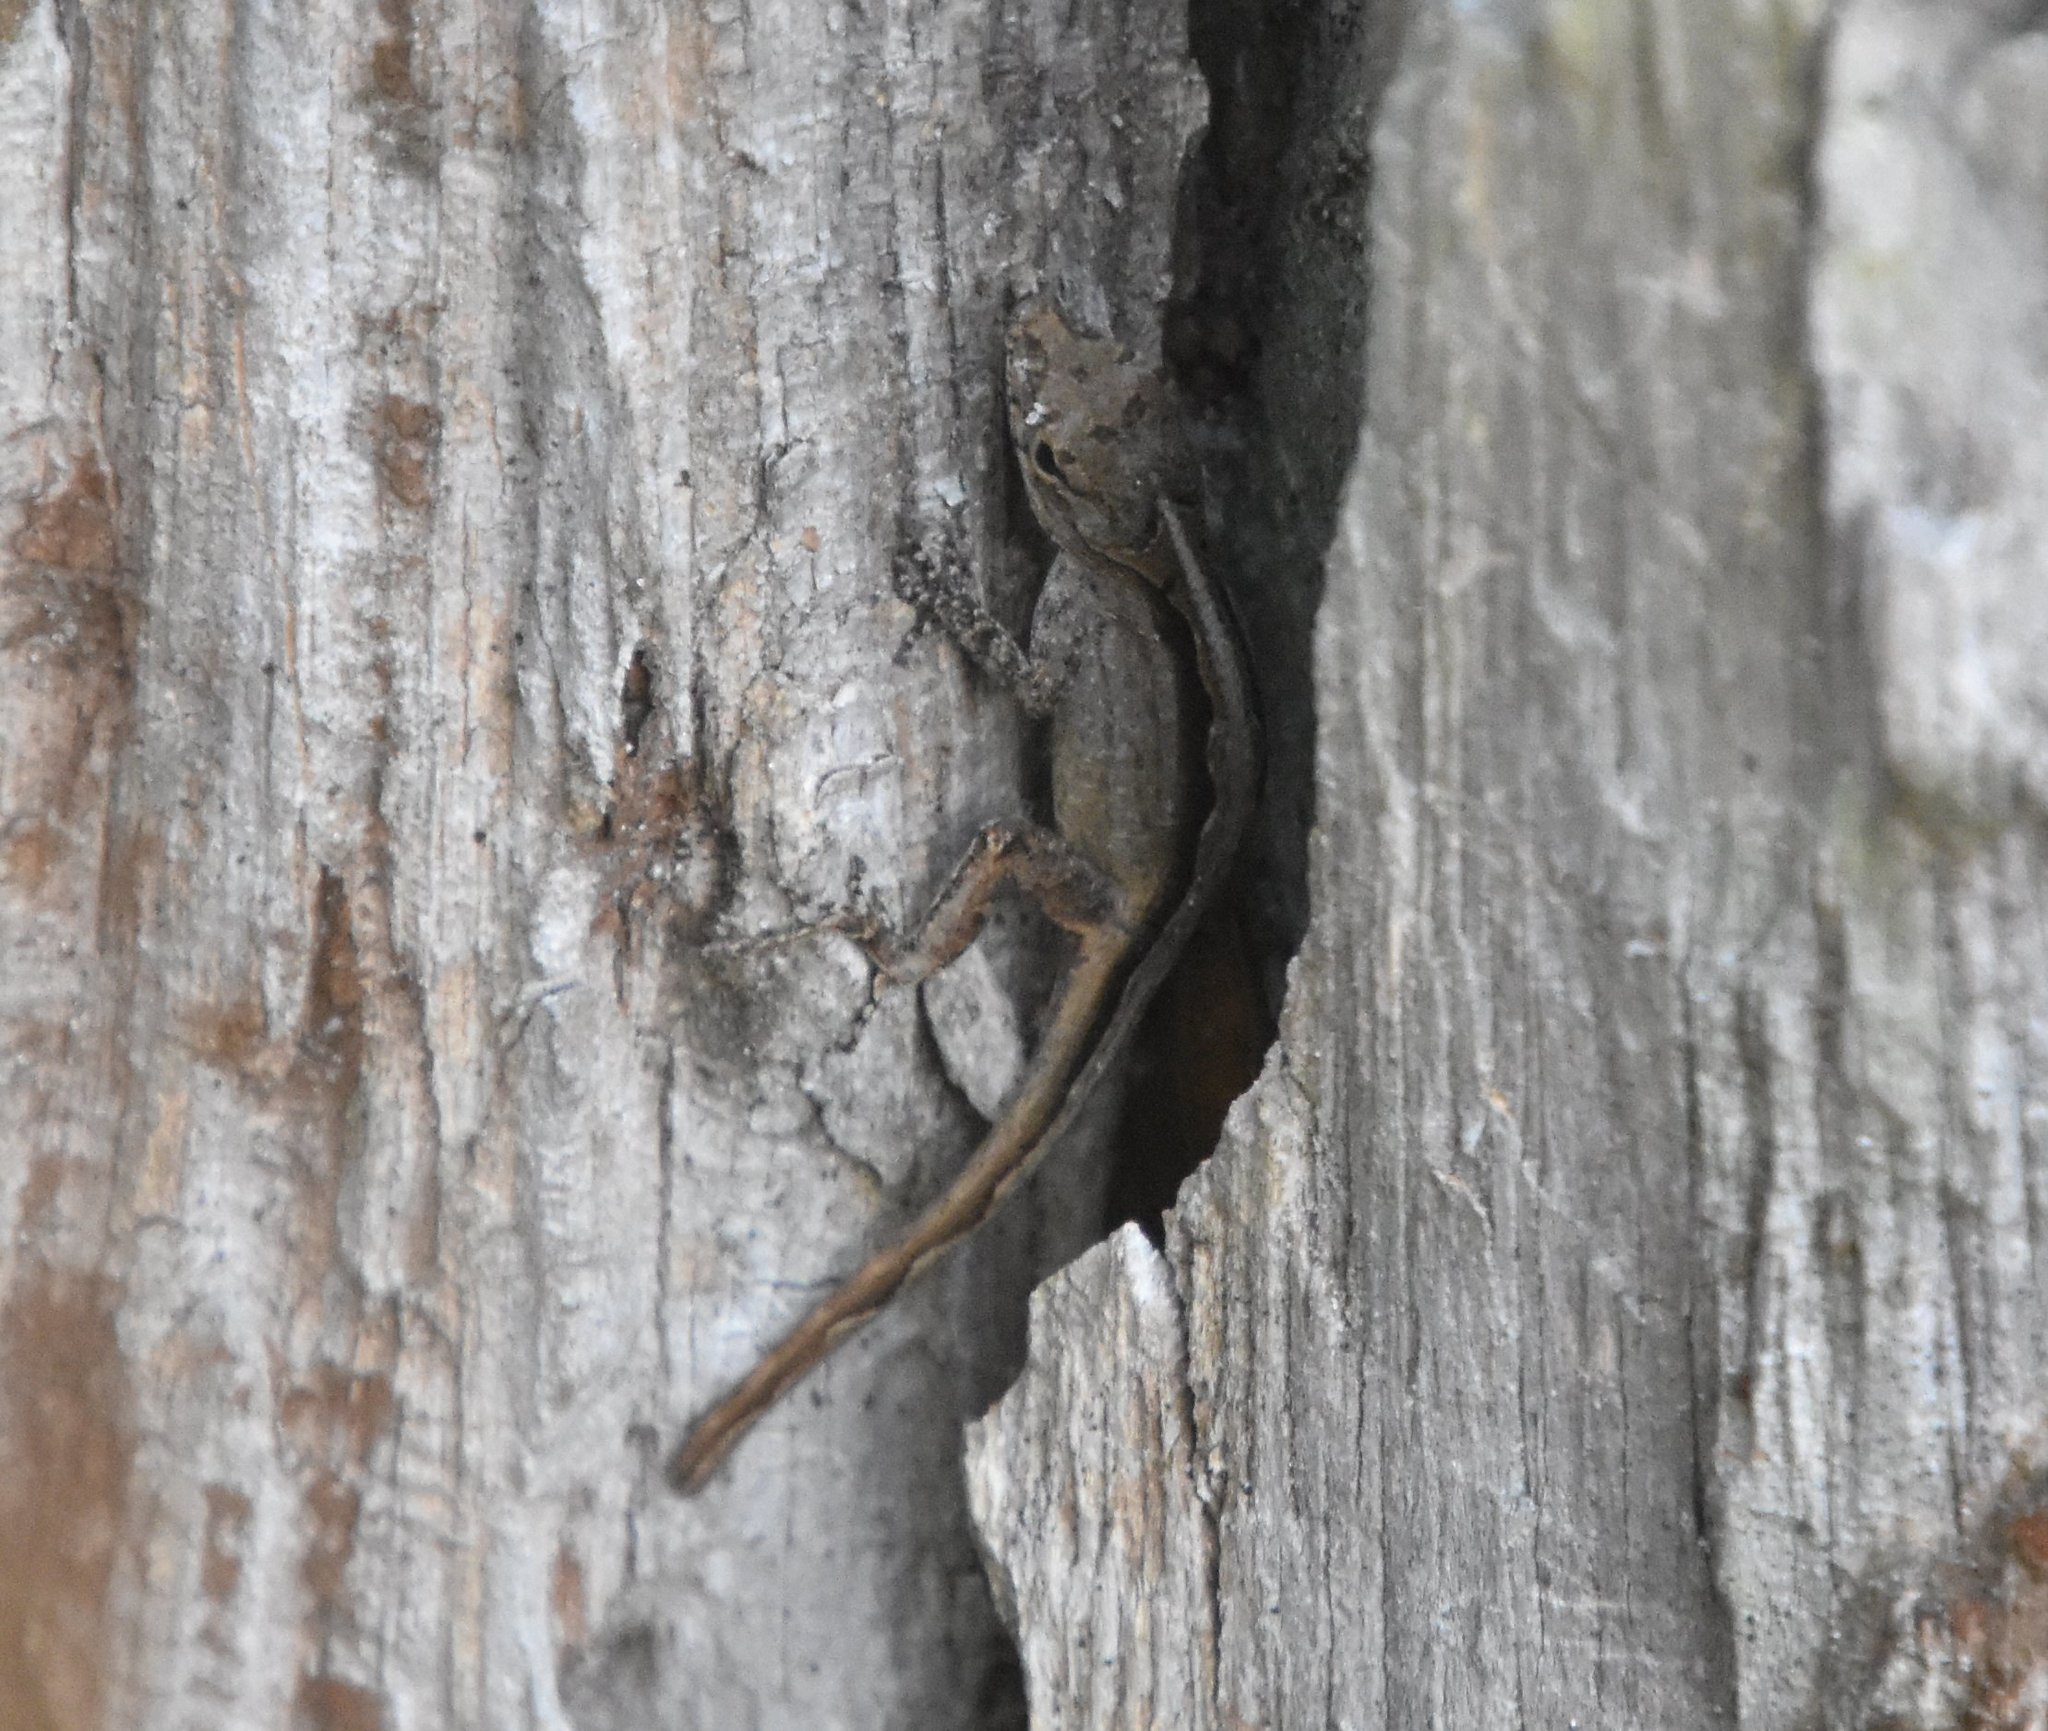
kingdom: Animalia
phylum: Chordata
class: Squamata
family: Dactyloidae
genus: Anolis
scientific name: Anolis sagrei
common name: Brown anole
